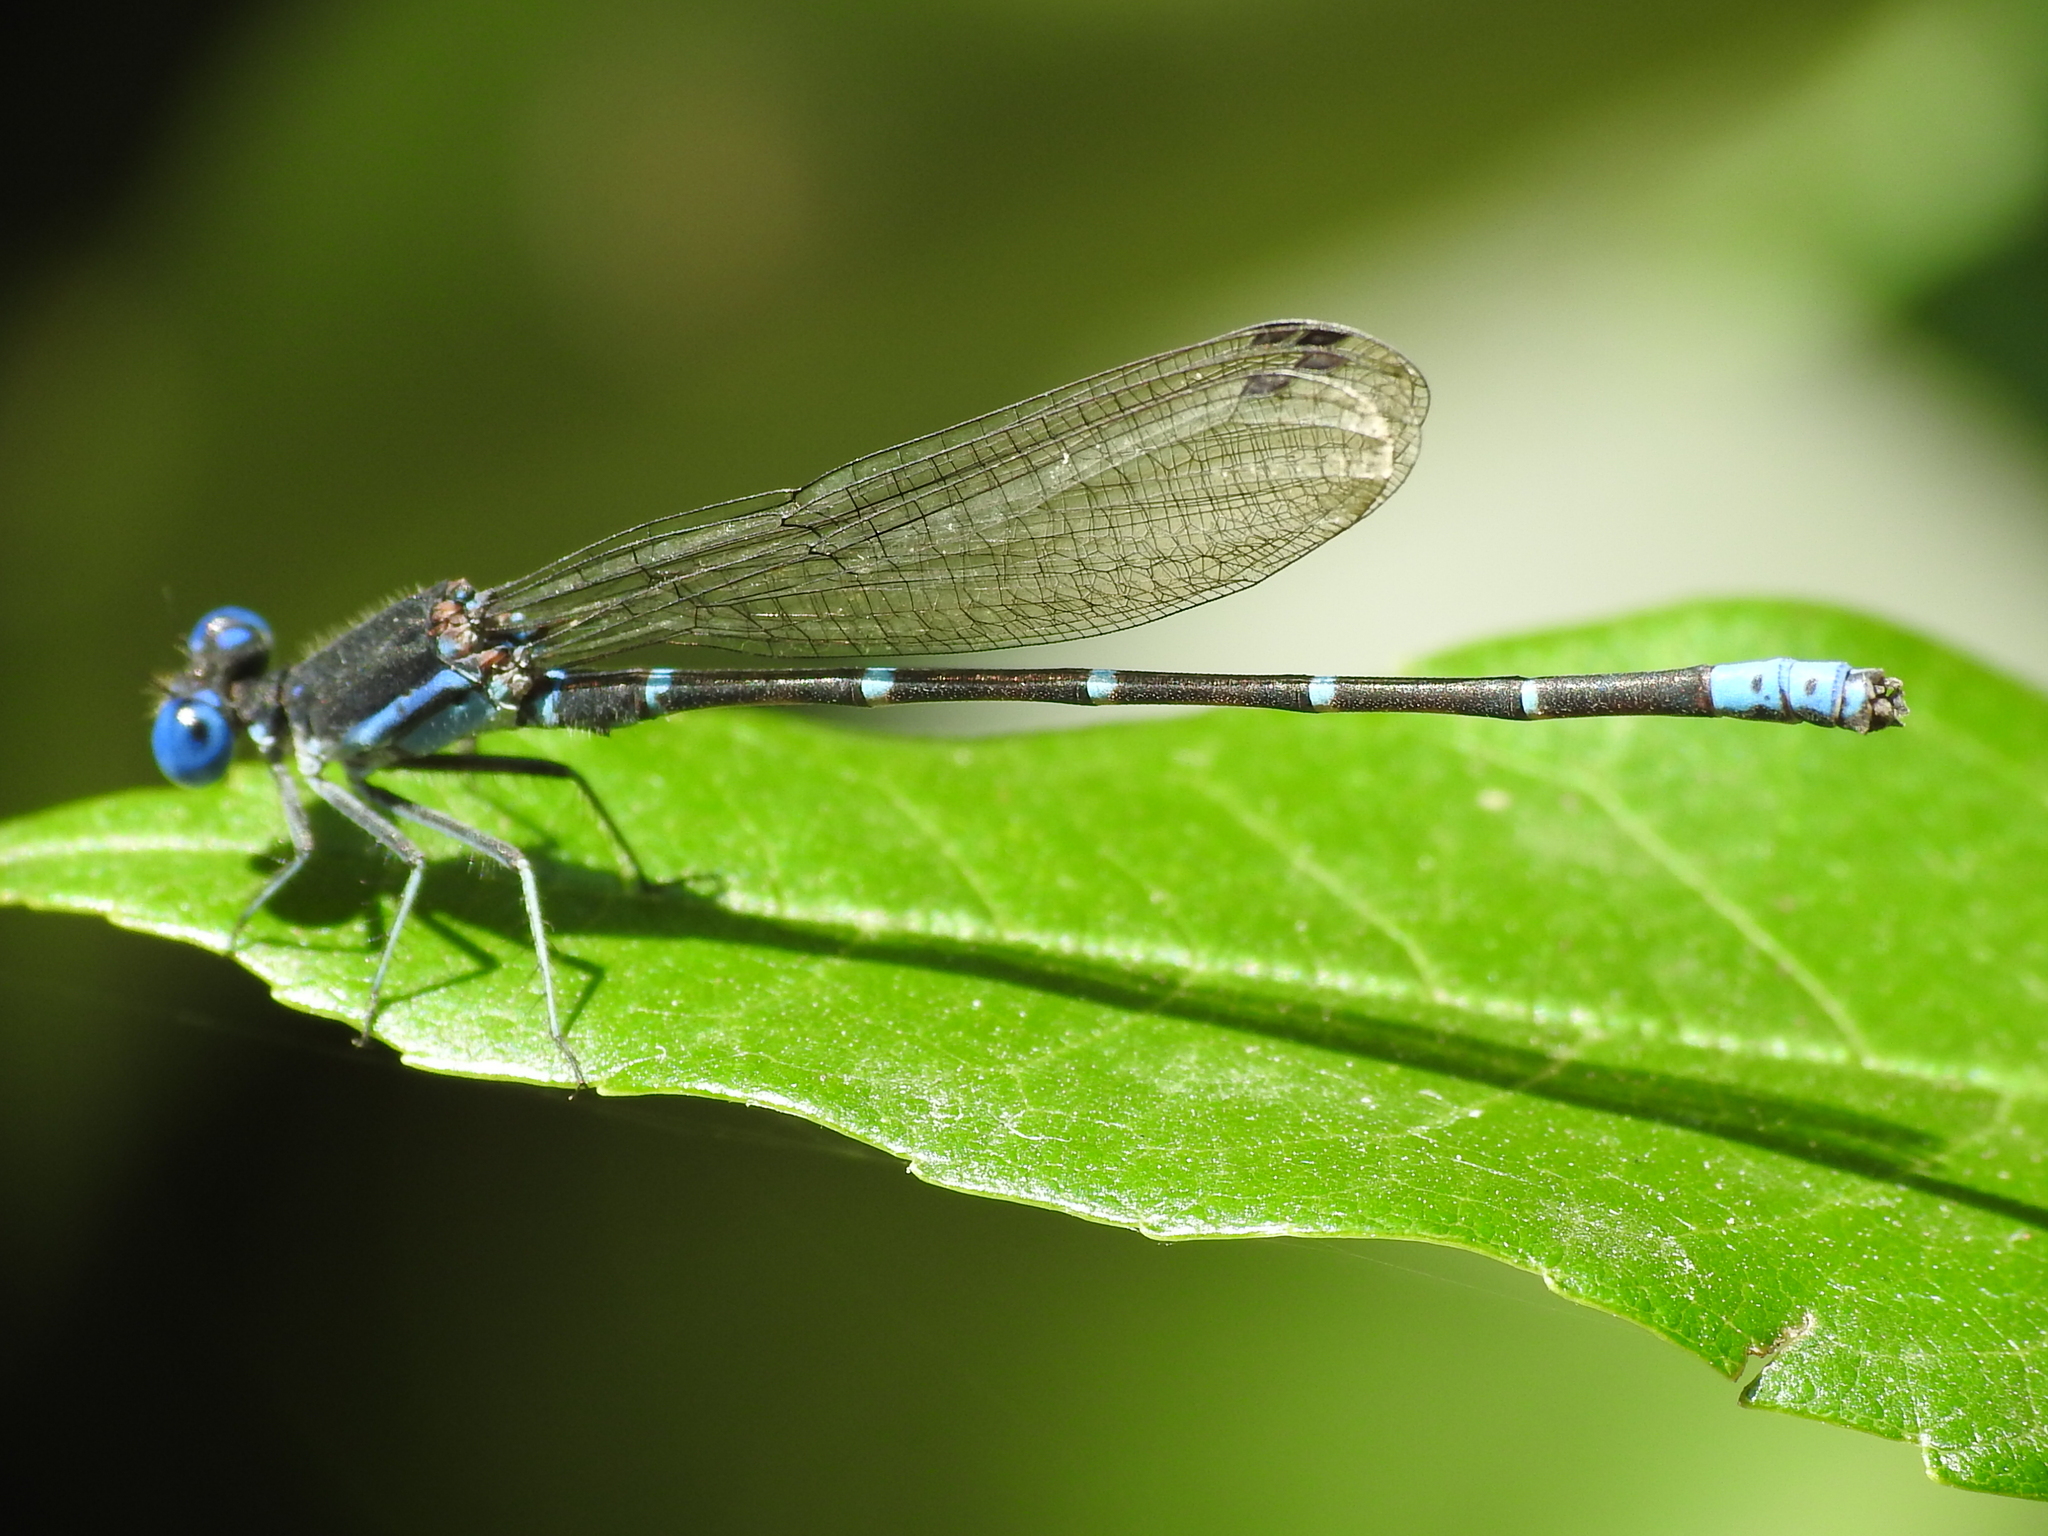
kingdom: Animalia
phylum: Arthropoda
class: Insecta
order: Odonata
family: Coenagrionidae
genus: Argia
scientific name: Argia sedula
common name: Blue-ringed dancer
